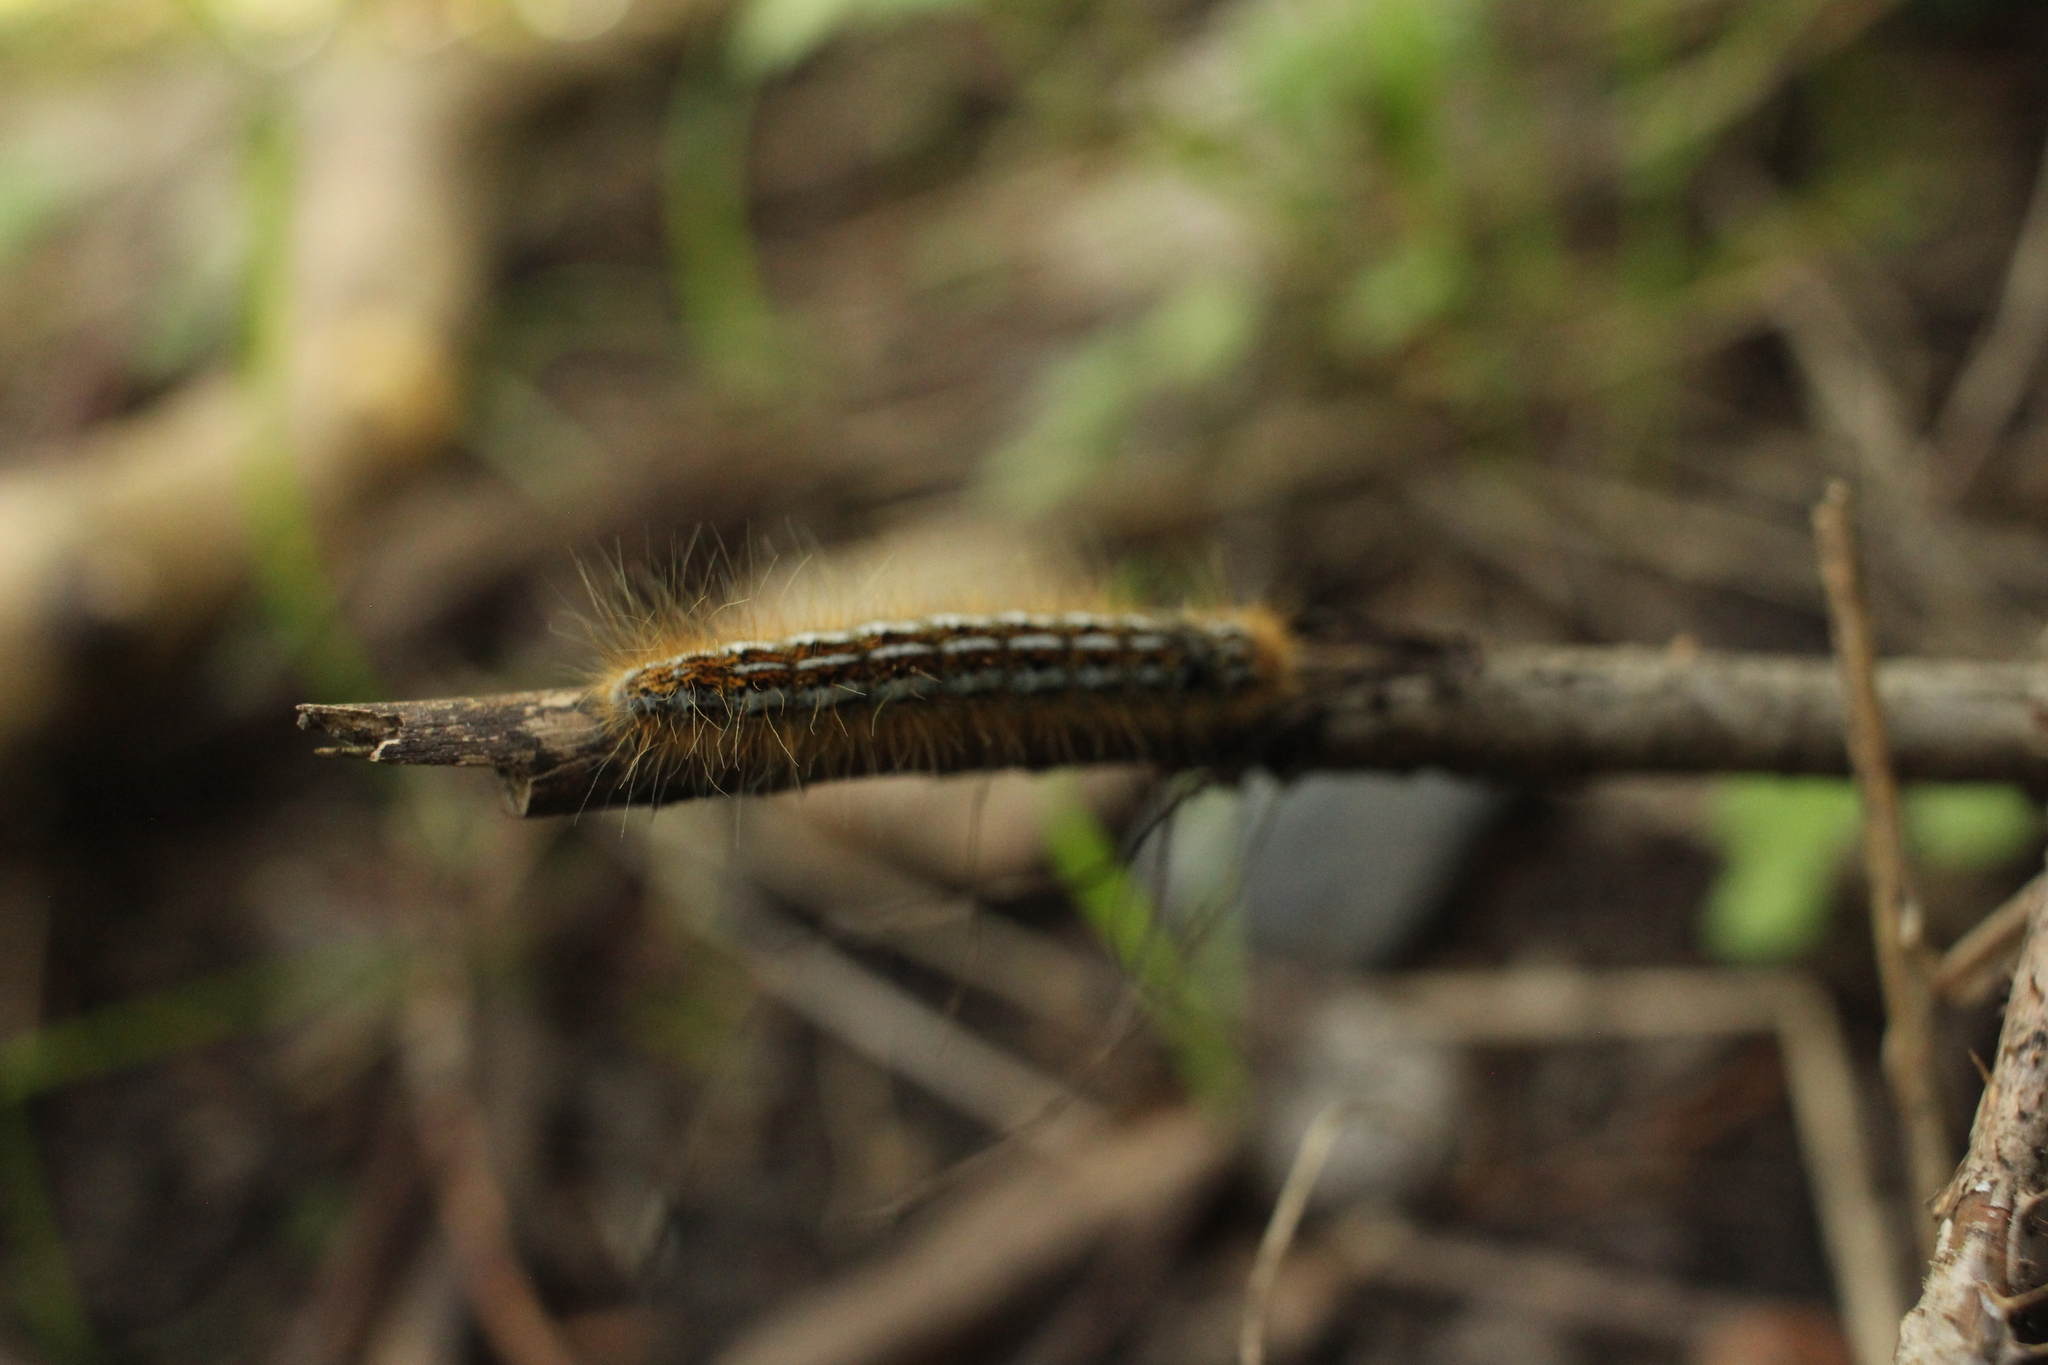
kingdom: Animalia
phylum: Arthropoda
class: Insecta
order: Lepidoptera
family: Lasiocampidae
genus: Malacosoma
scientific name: Malacosoma californica
